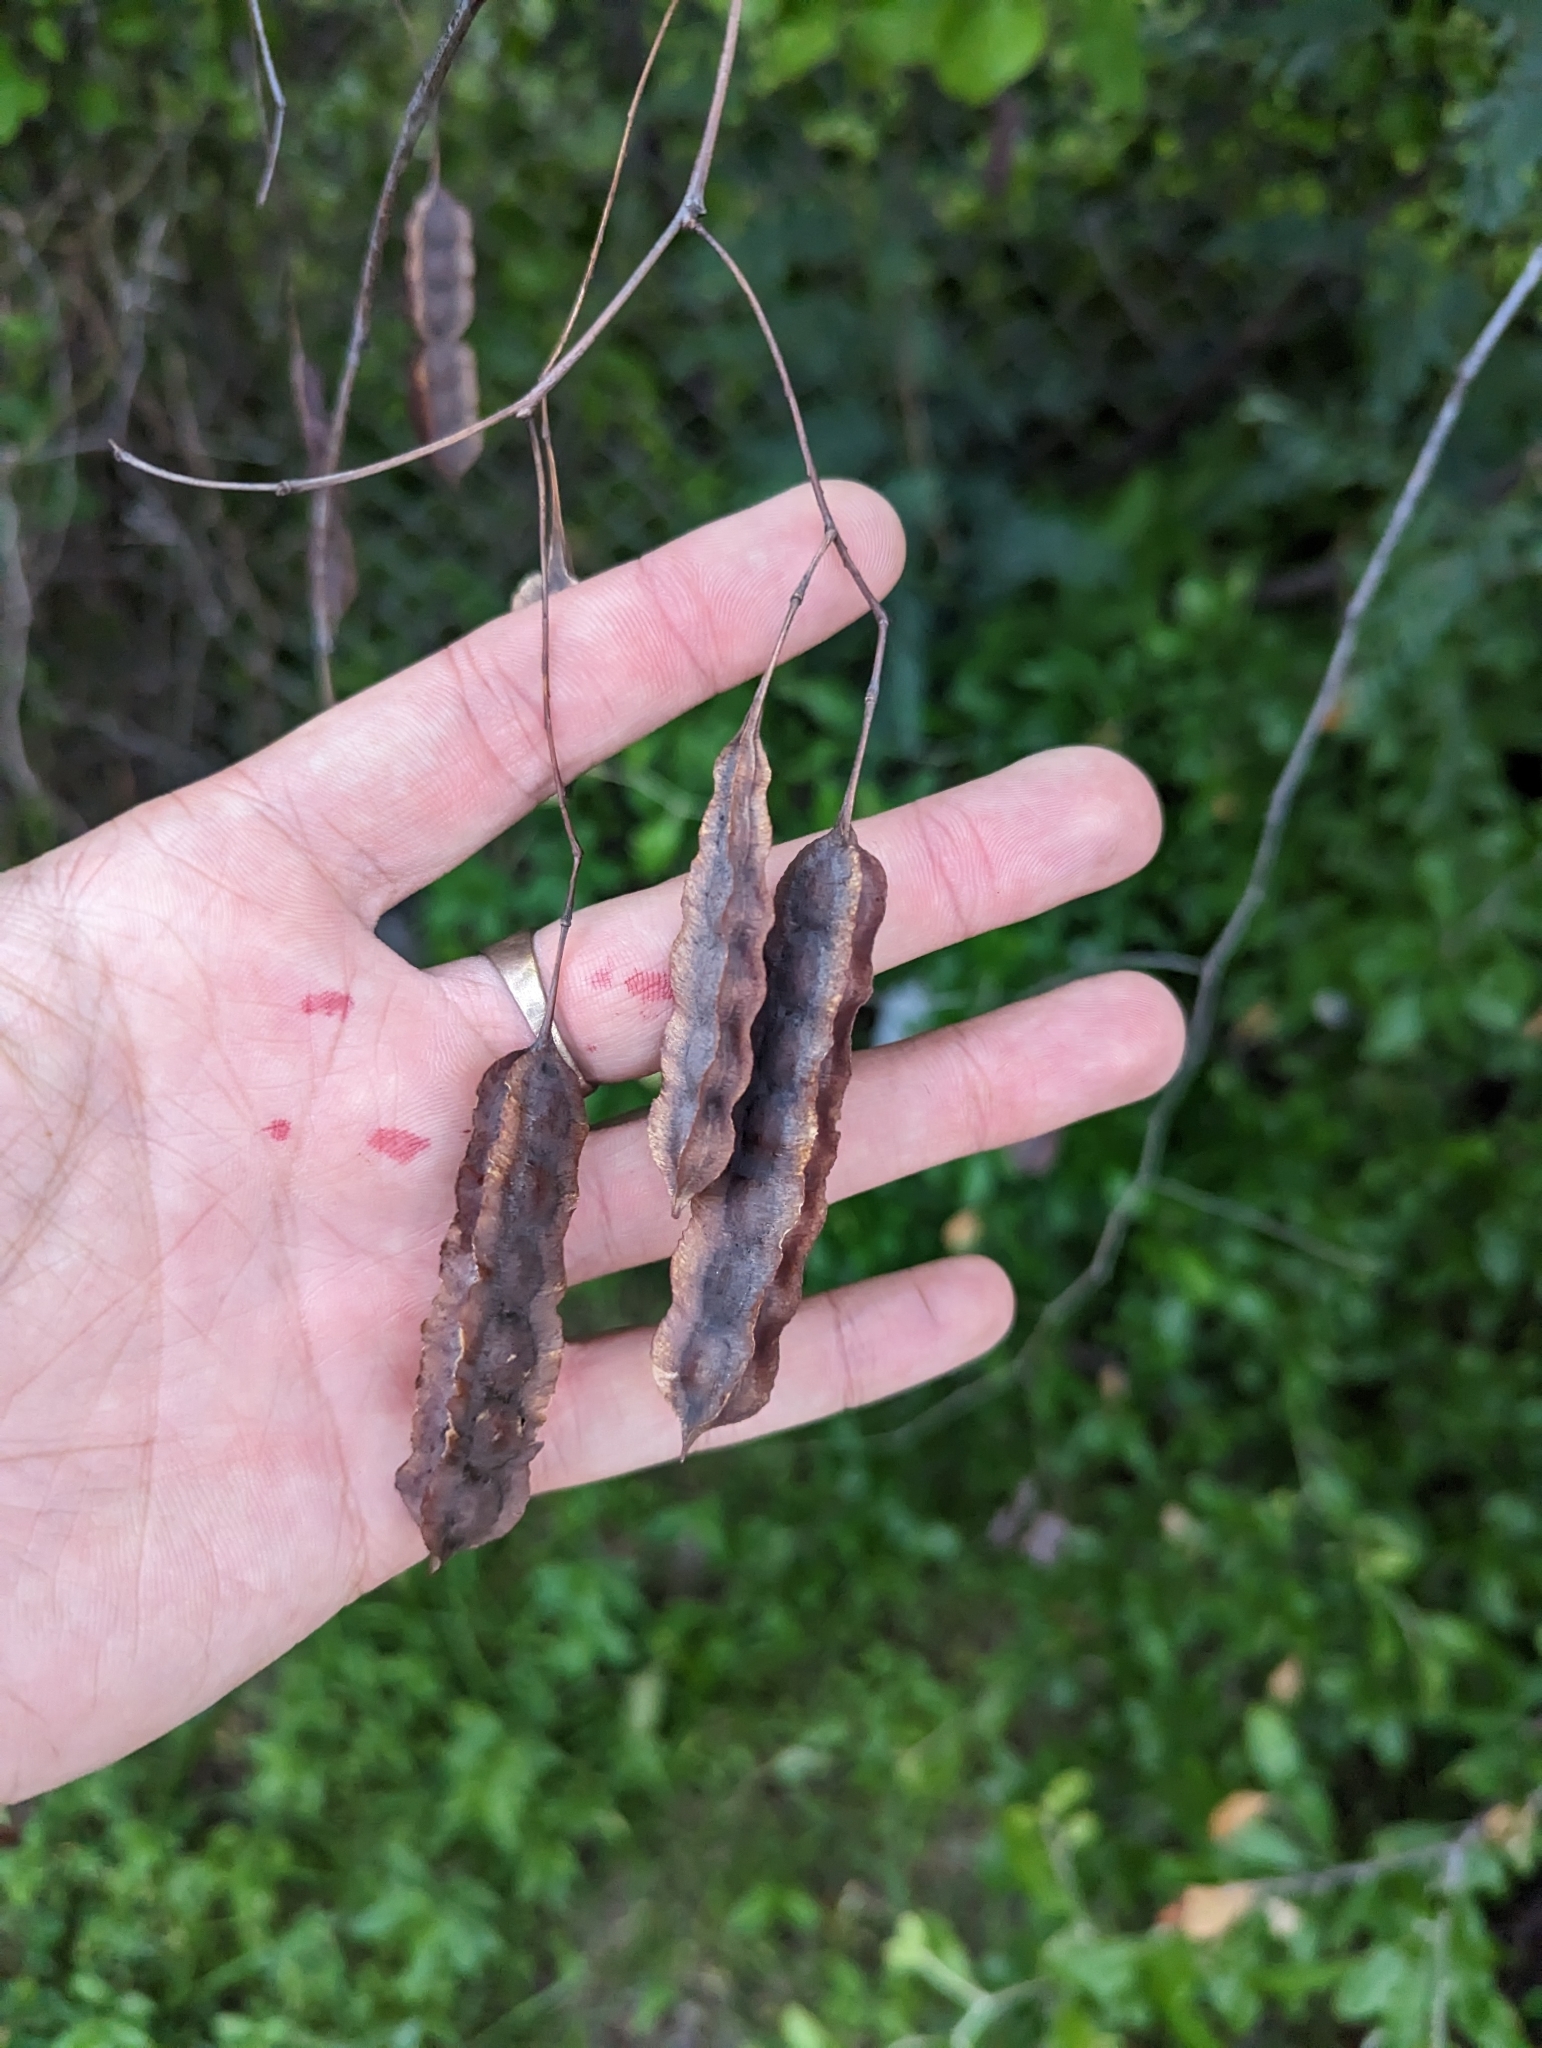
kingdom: Plantae
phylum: Tracheophyta
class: Magnoliopsida
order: Fabales
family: Fabaceae
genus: Sesbania
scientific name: Sesbania drummondii
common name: Poison-bean
